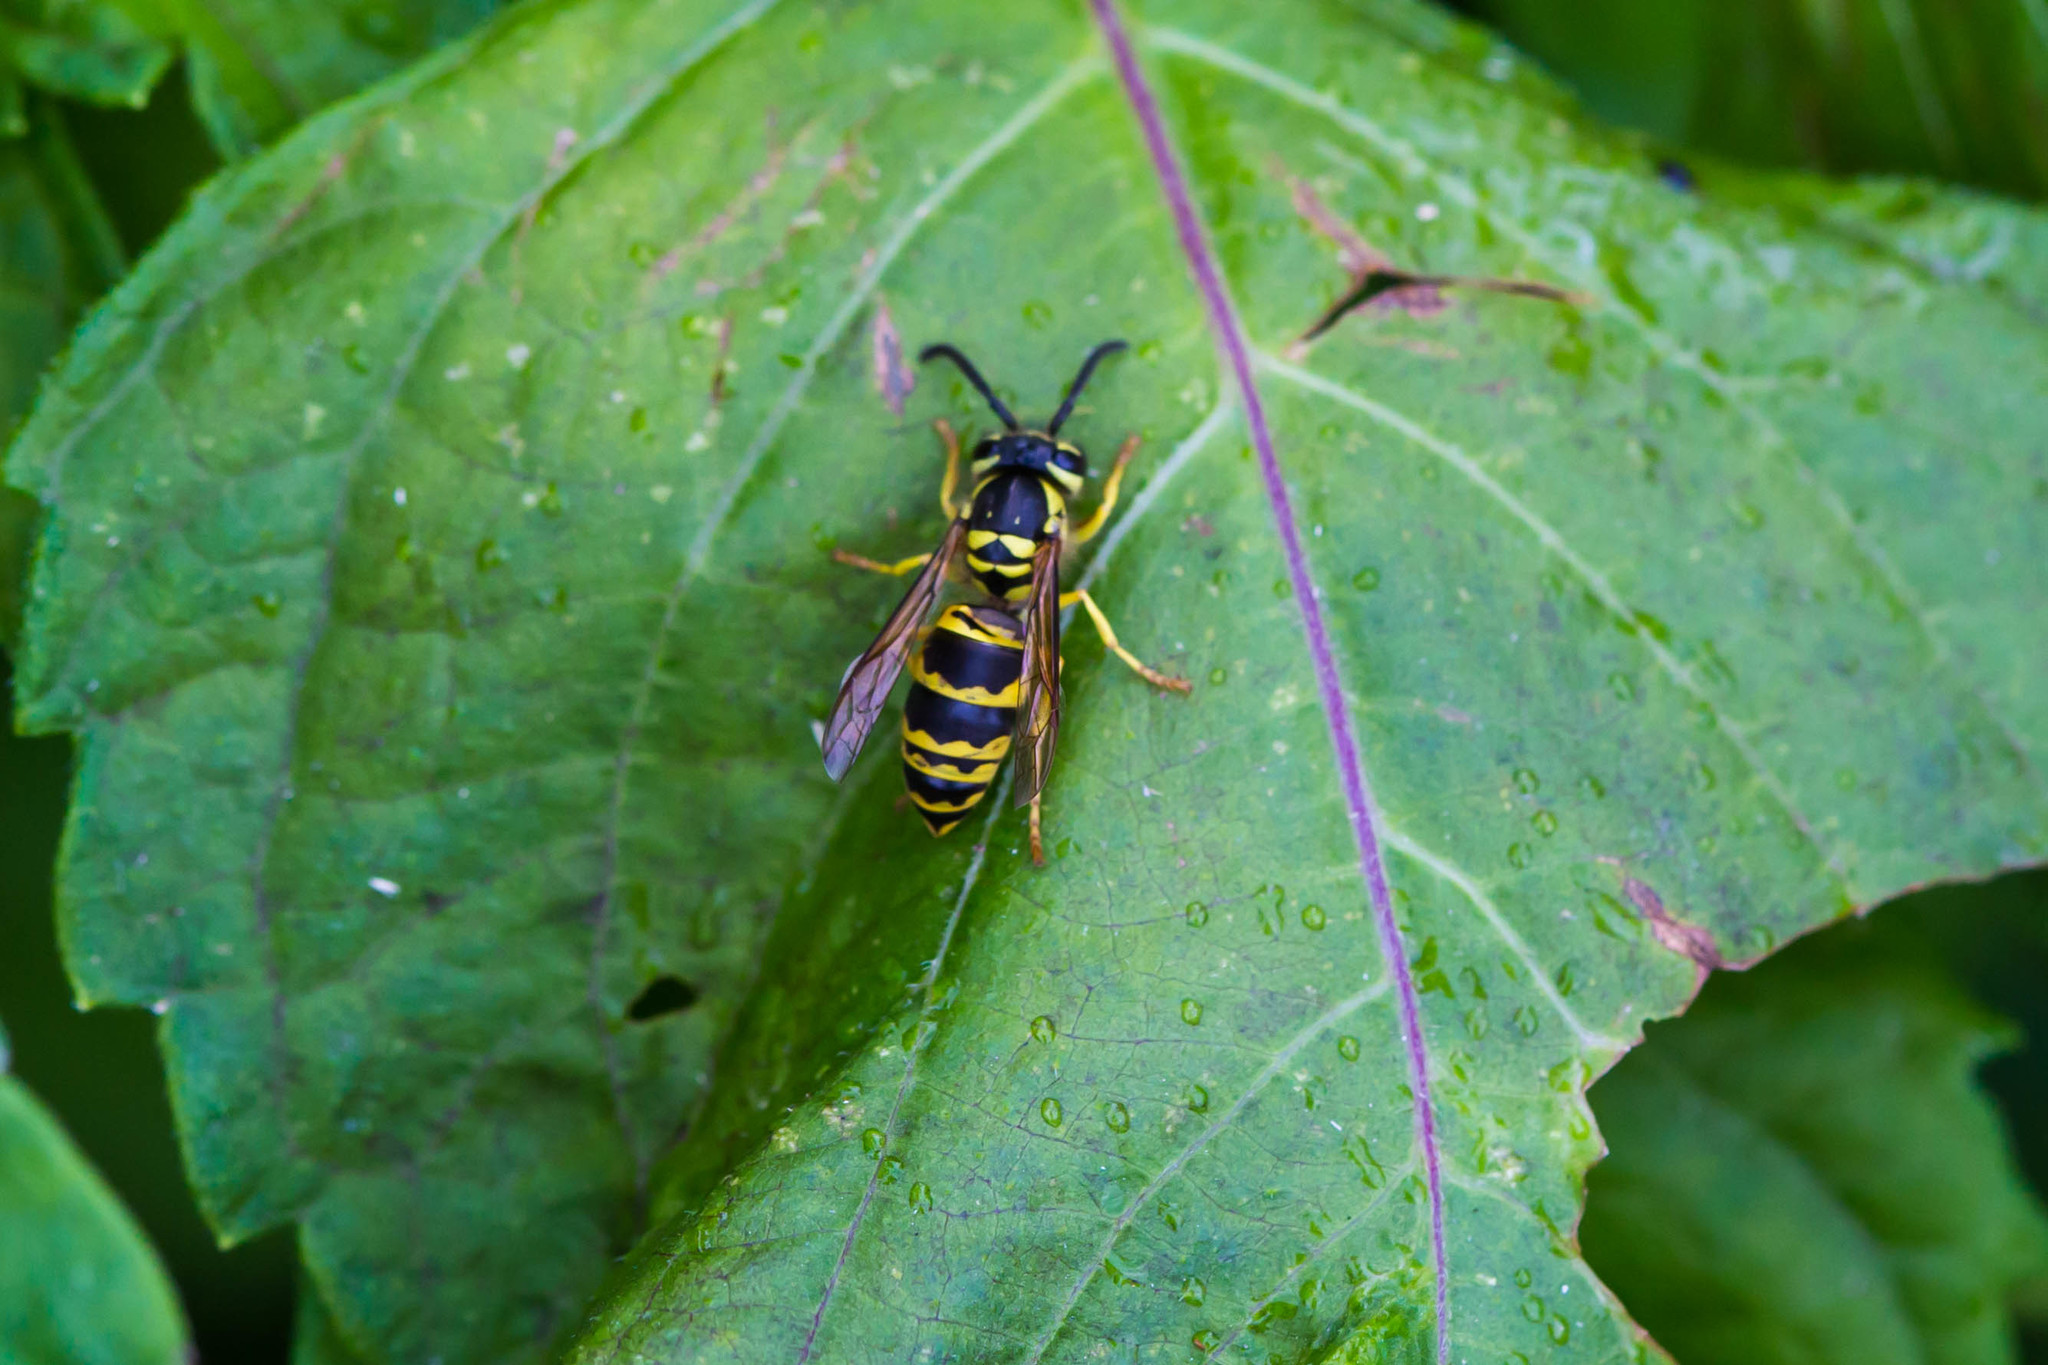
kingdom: Animalia
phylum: Arthropoda
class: Insecta
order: Hymenoptera
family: Vespidae
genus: Vespula
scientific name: Vespula maculifrons
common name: Eastern yellowjacket
